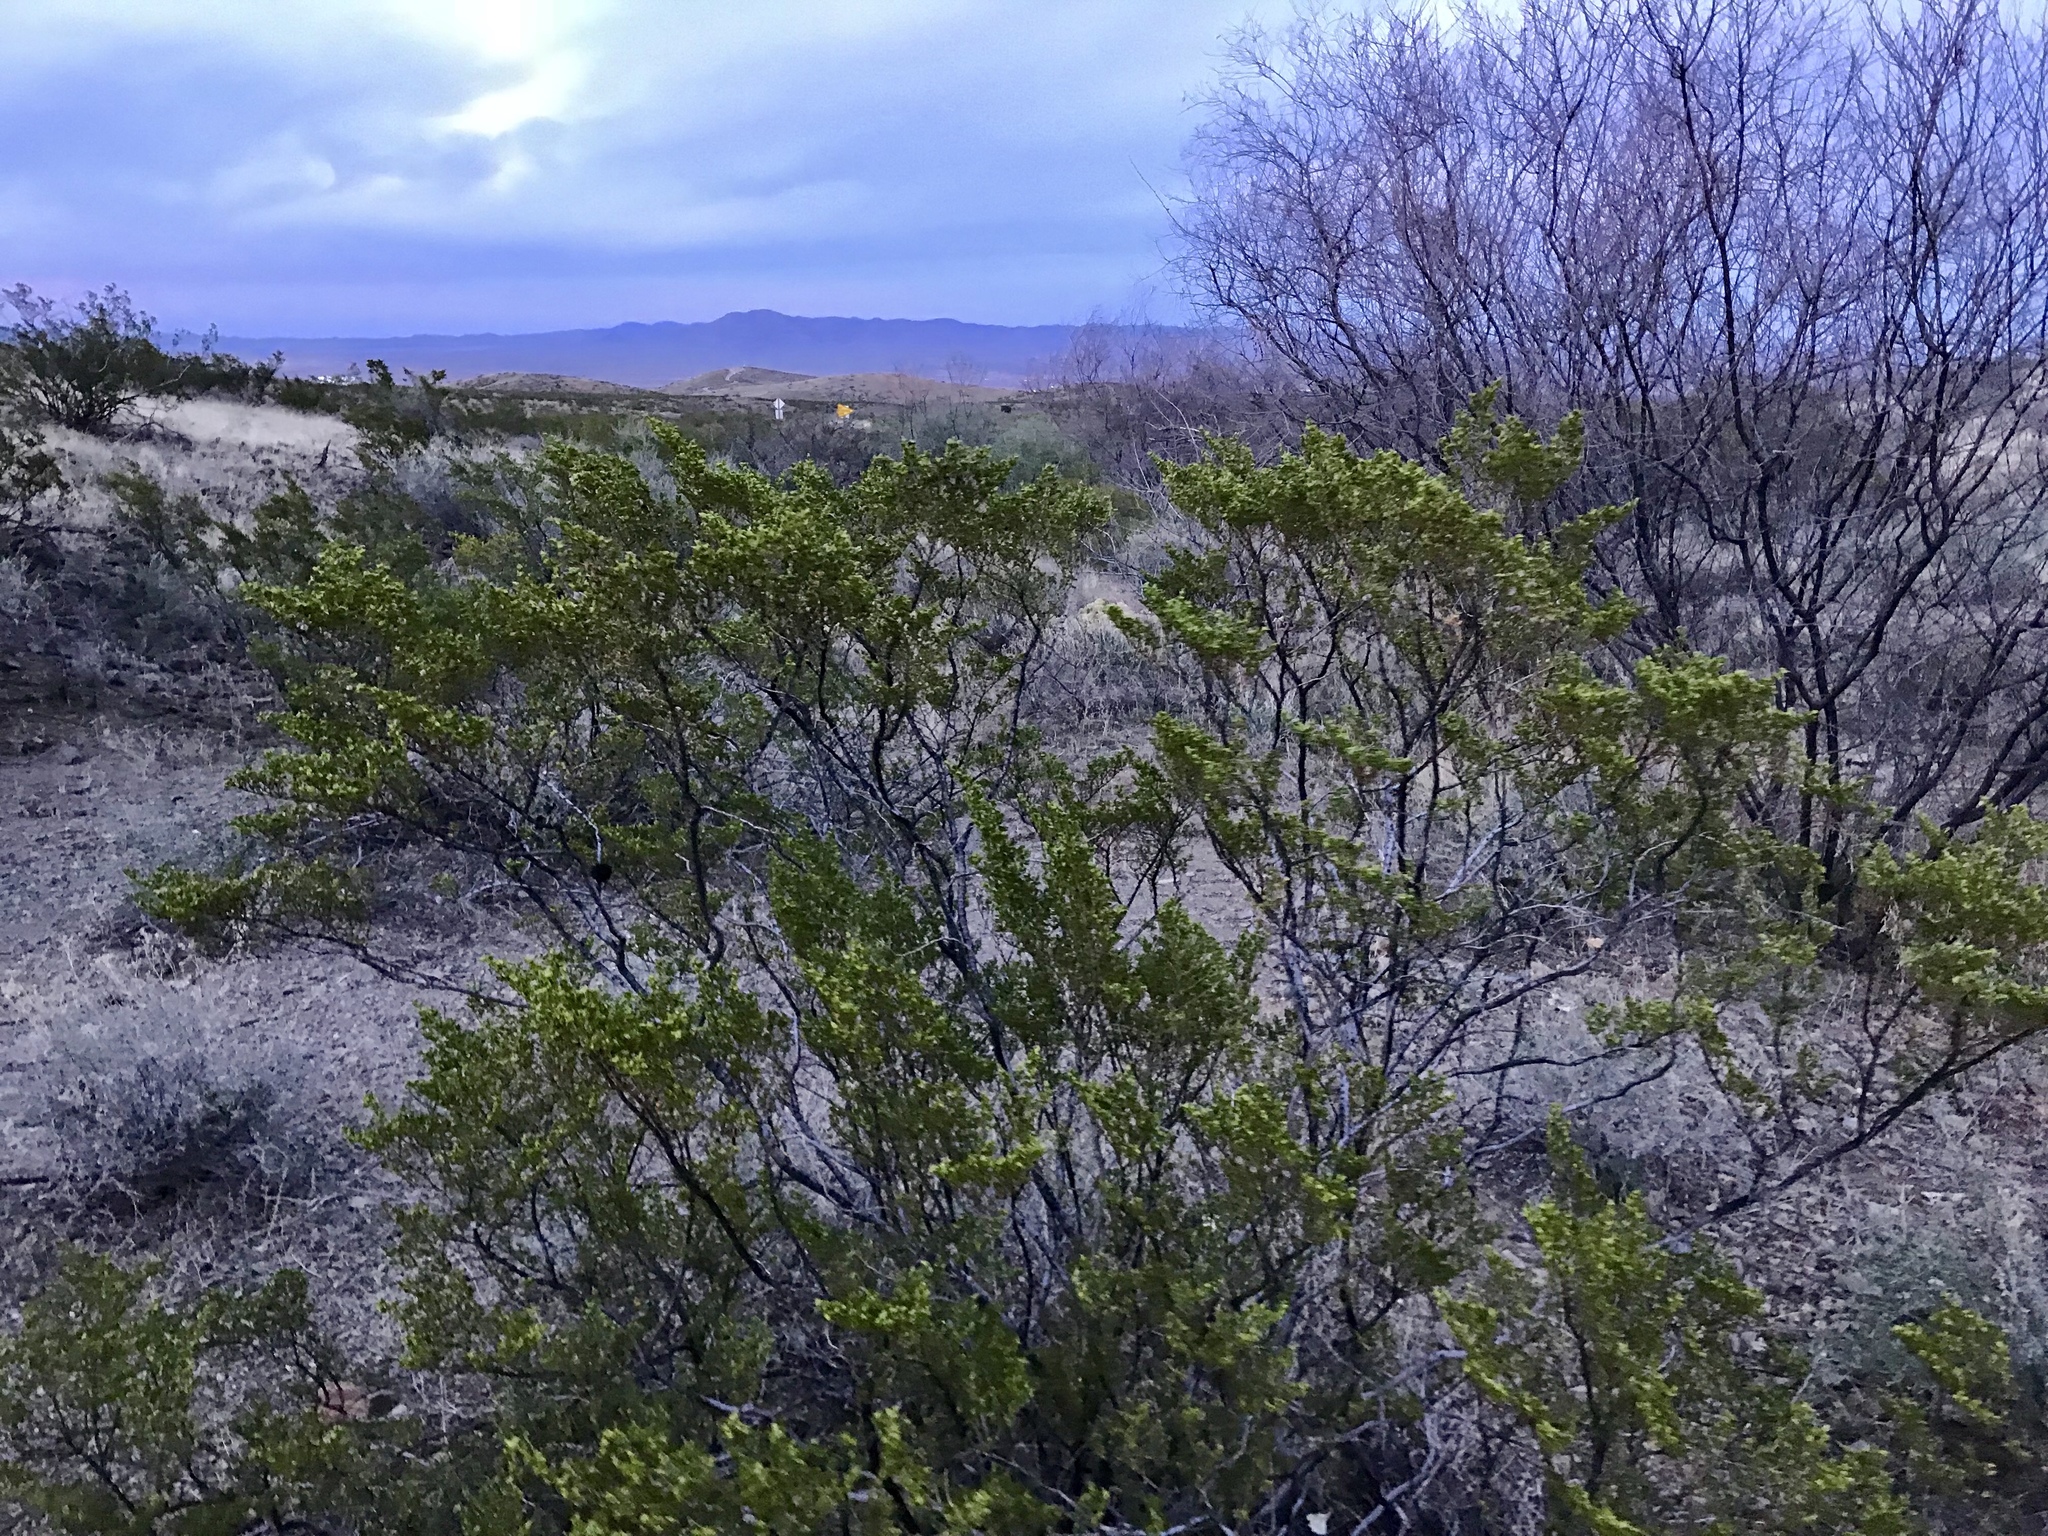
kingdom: Plantae
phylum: Tracheophyta
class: Magnoliopsida
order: Zygophyllales
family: Zygophyllaceae
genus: Larrea
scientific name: Larrea tridentata
